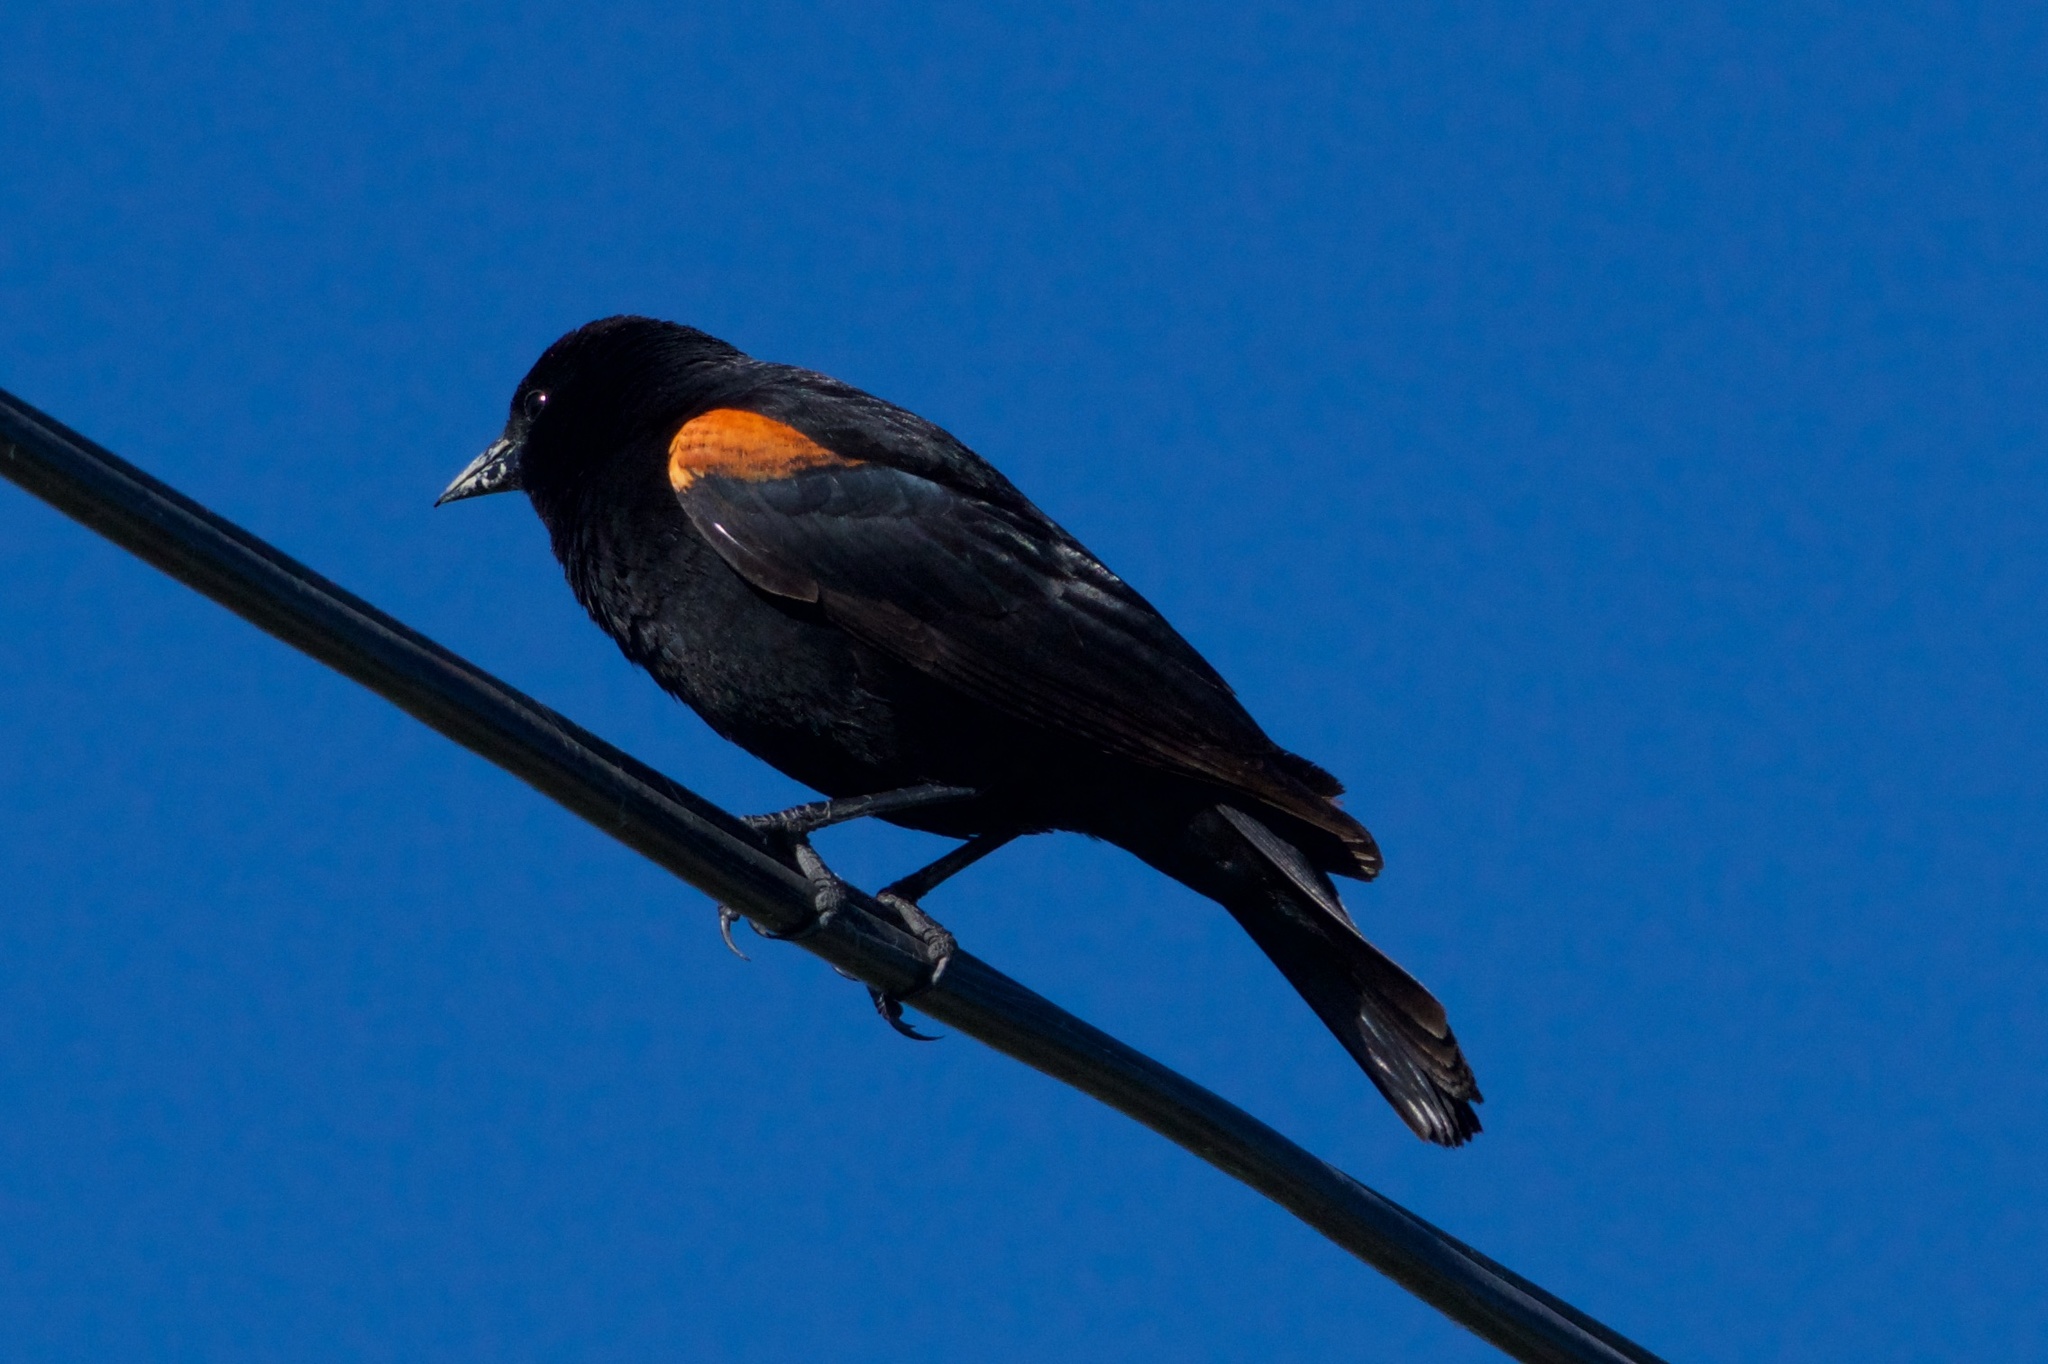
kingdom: Animalia
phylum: Chordata
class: Aves
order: Passeriformes
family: Icteridae
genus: Agelaius
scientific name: Agelaius phoeniceus
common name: Red-winged blackbird
